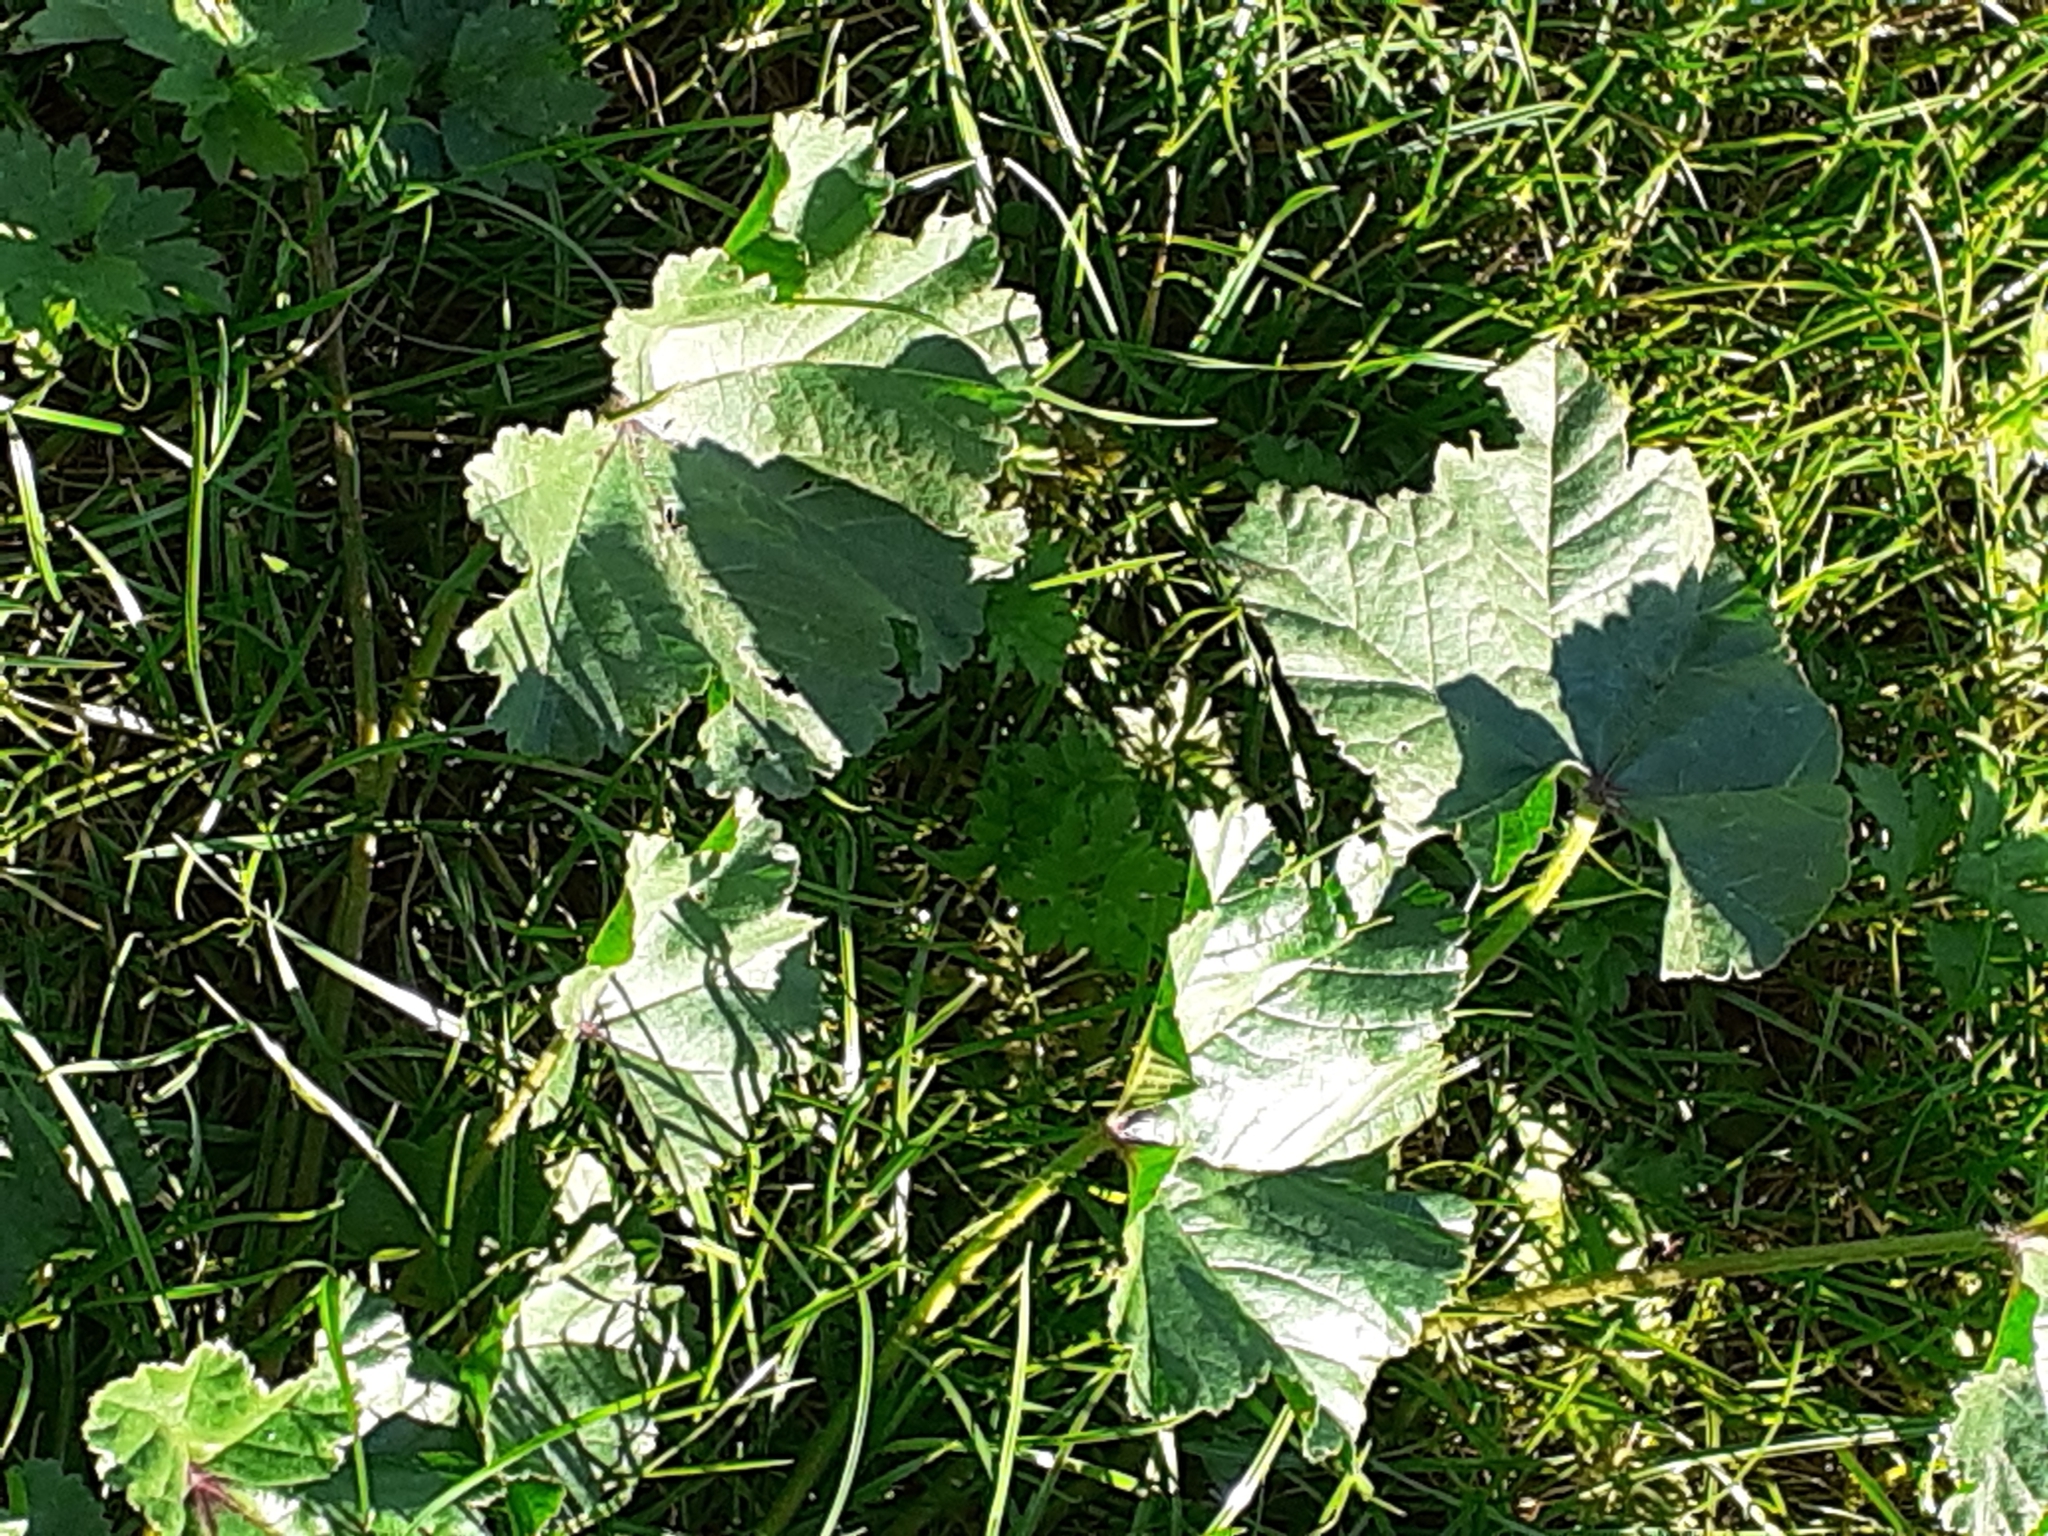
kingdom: Plantae
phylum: Tracheophyta
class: Magnoliopsida
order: Malvales
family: Malvaceae
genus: Malva
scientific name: Malva sylvestris
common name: Common mallow
